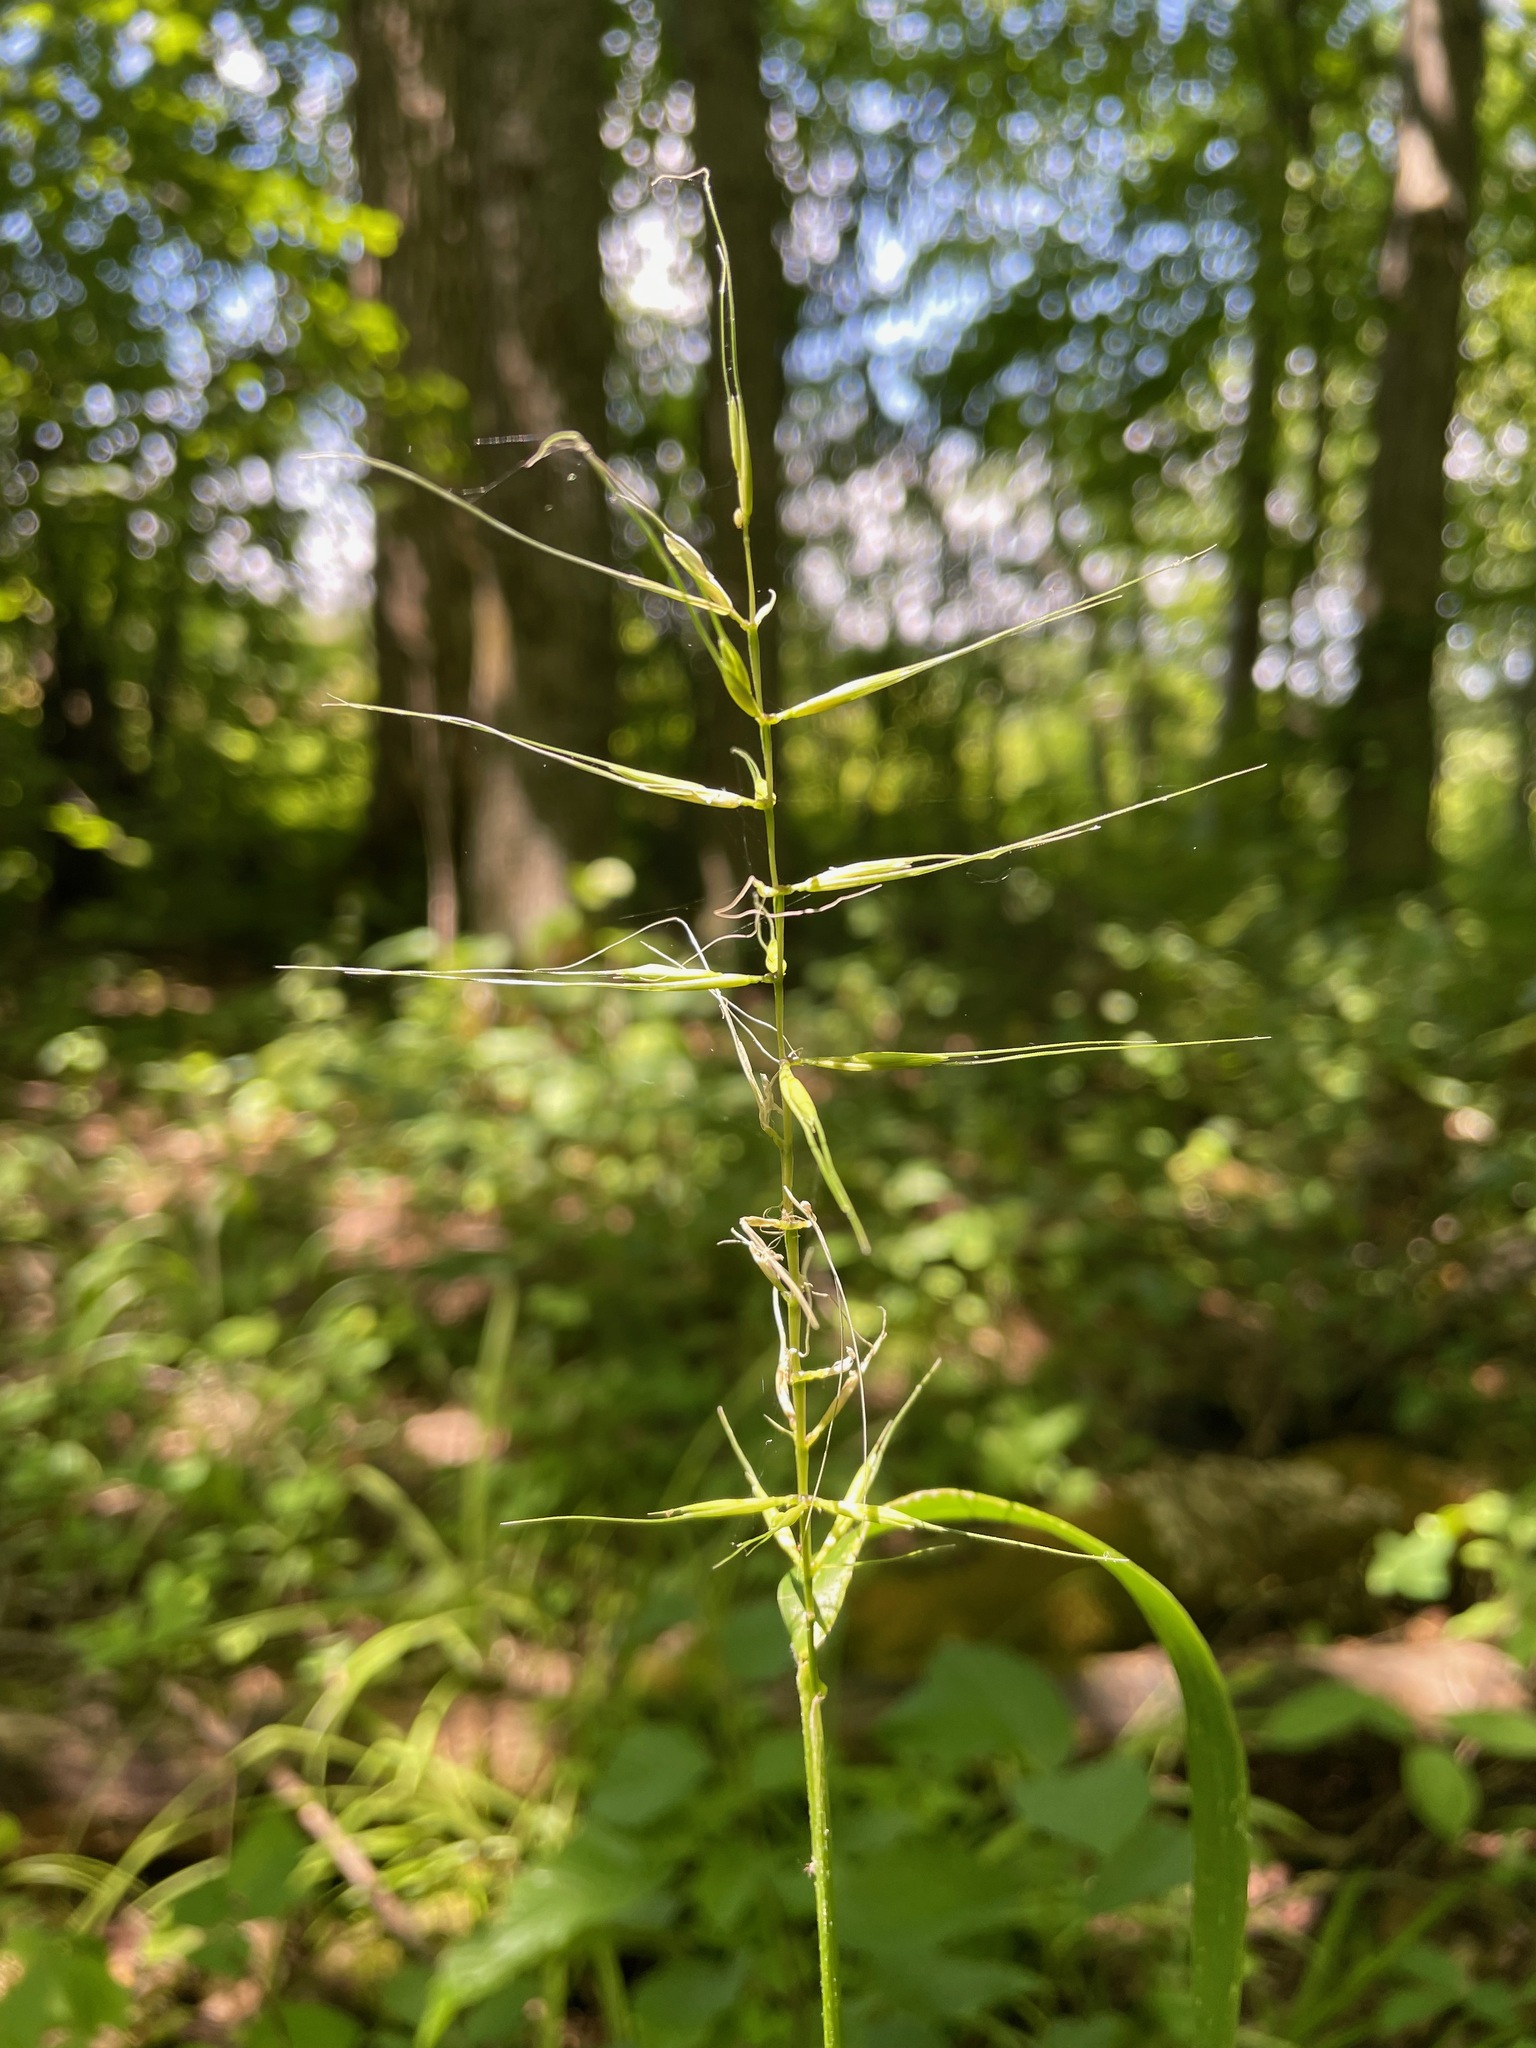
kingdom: Plantae
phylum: Tracheophyta
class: Liliopsida
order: Poales
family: Poaceae
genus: Elymus
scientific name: Elymus hystrix
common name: Bottlebrush grass
